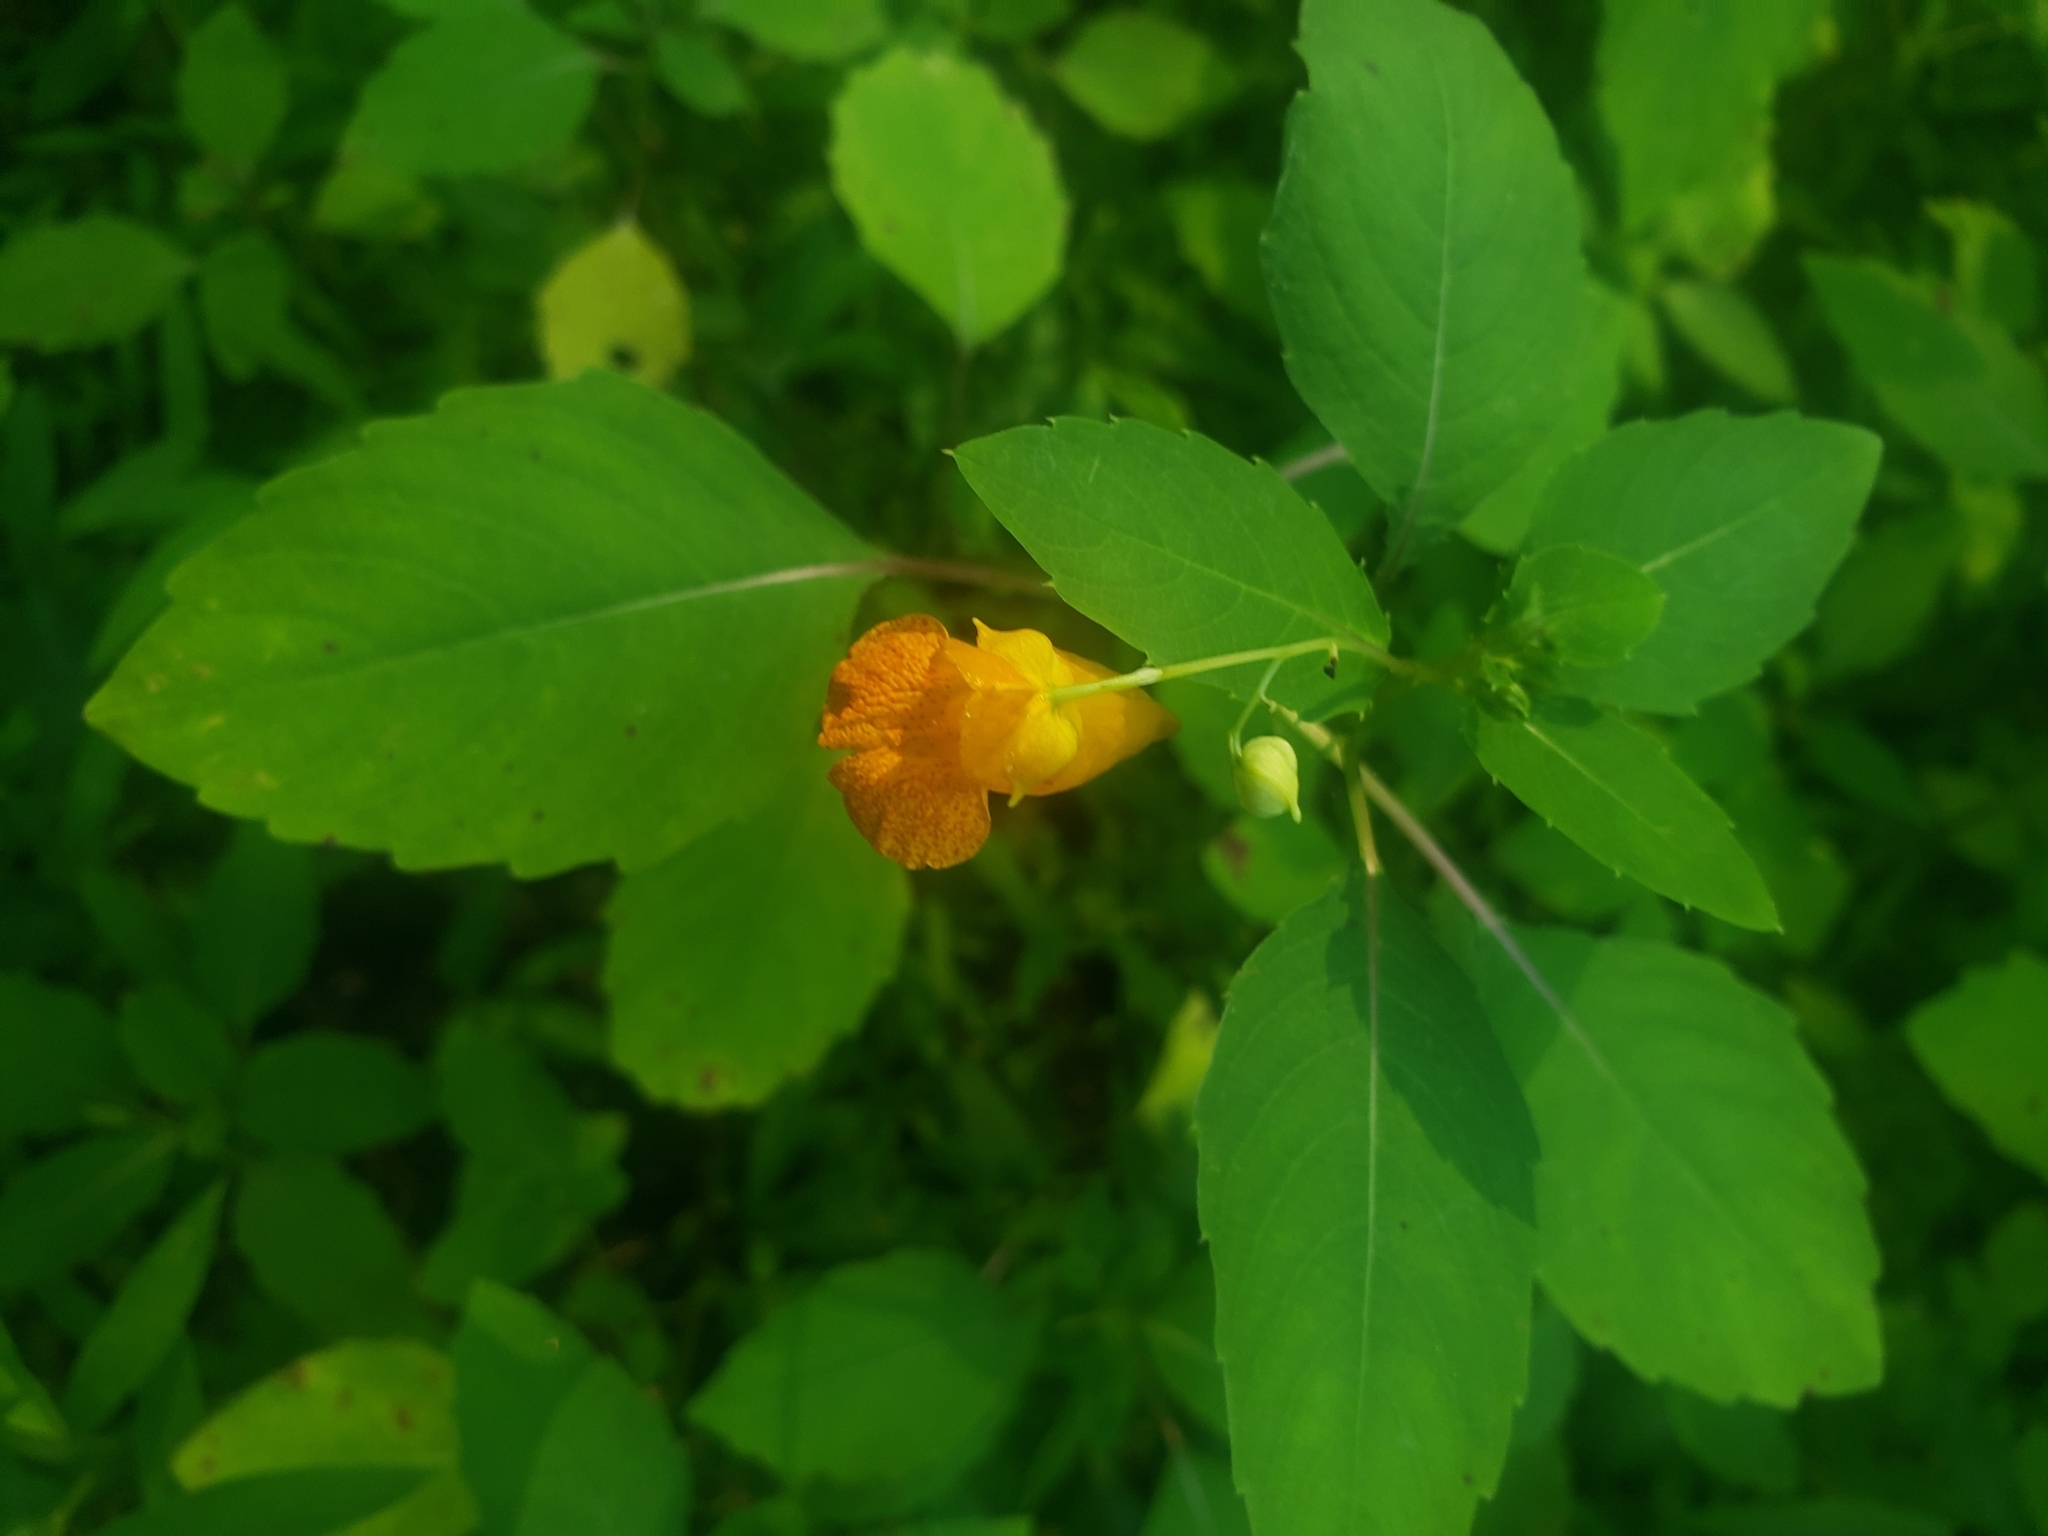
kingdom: Plantae
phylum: Tracheophyta
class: Magnoliopsida
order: Ericales
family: Balsaminaceae
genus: Impatiens
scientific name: Impatiens capensis
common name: Orange balsam
